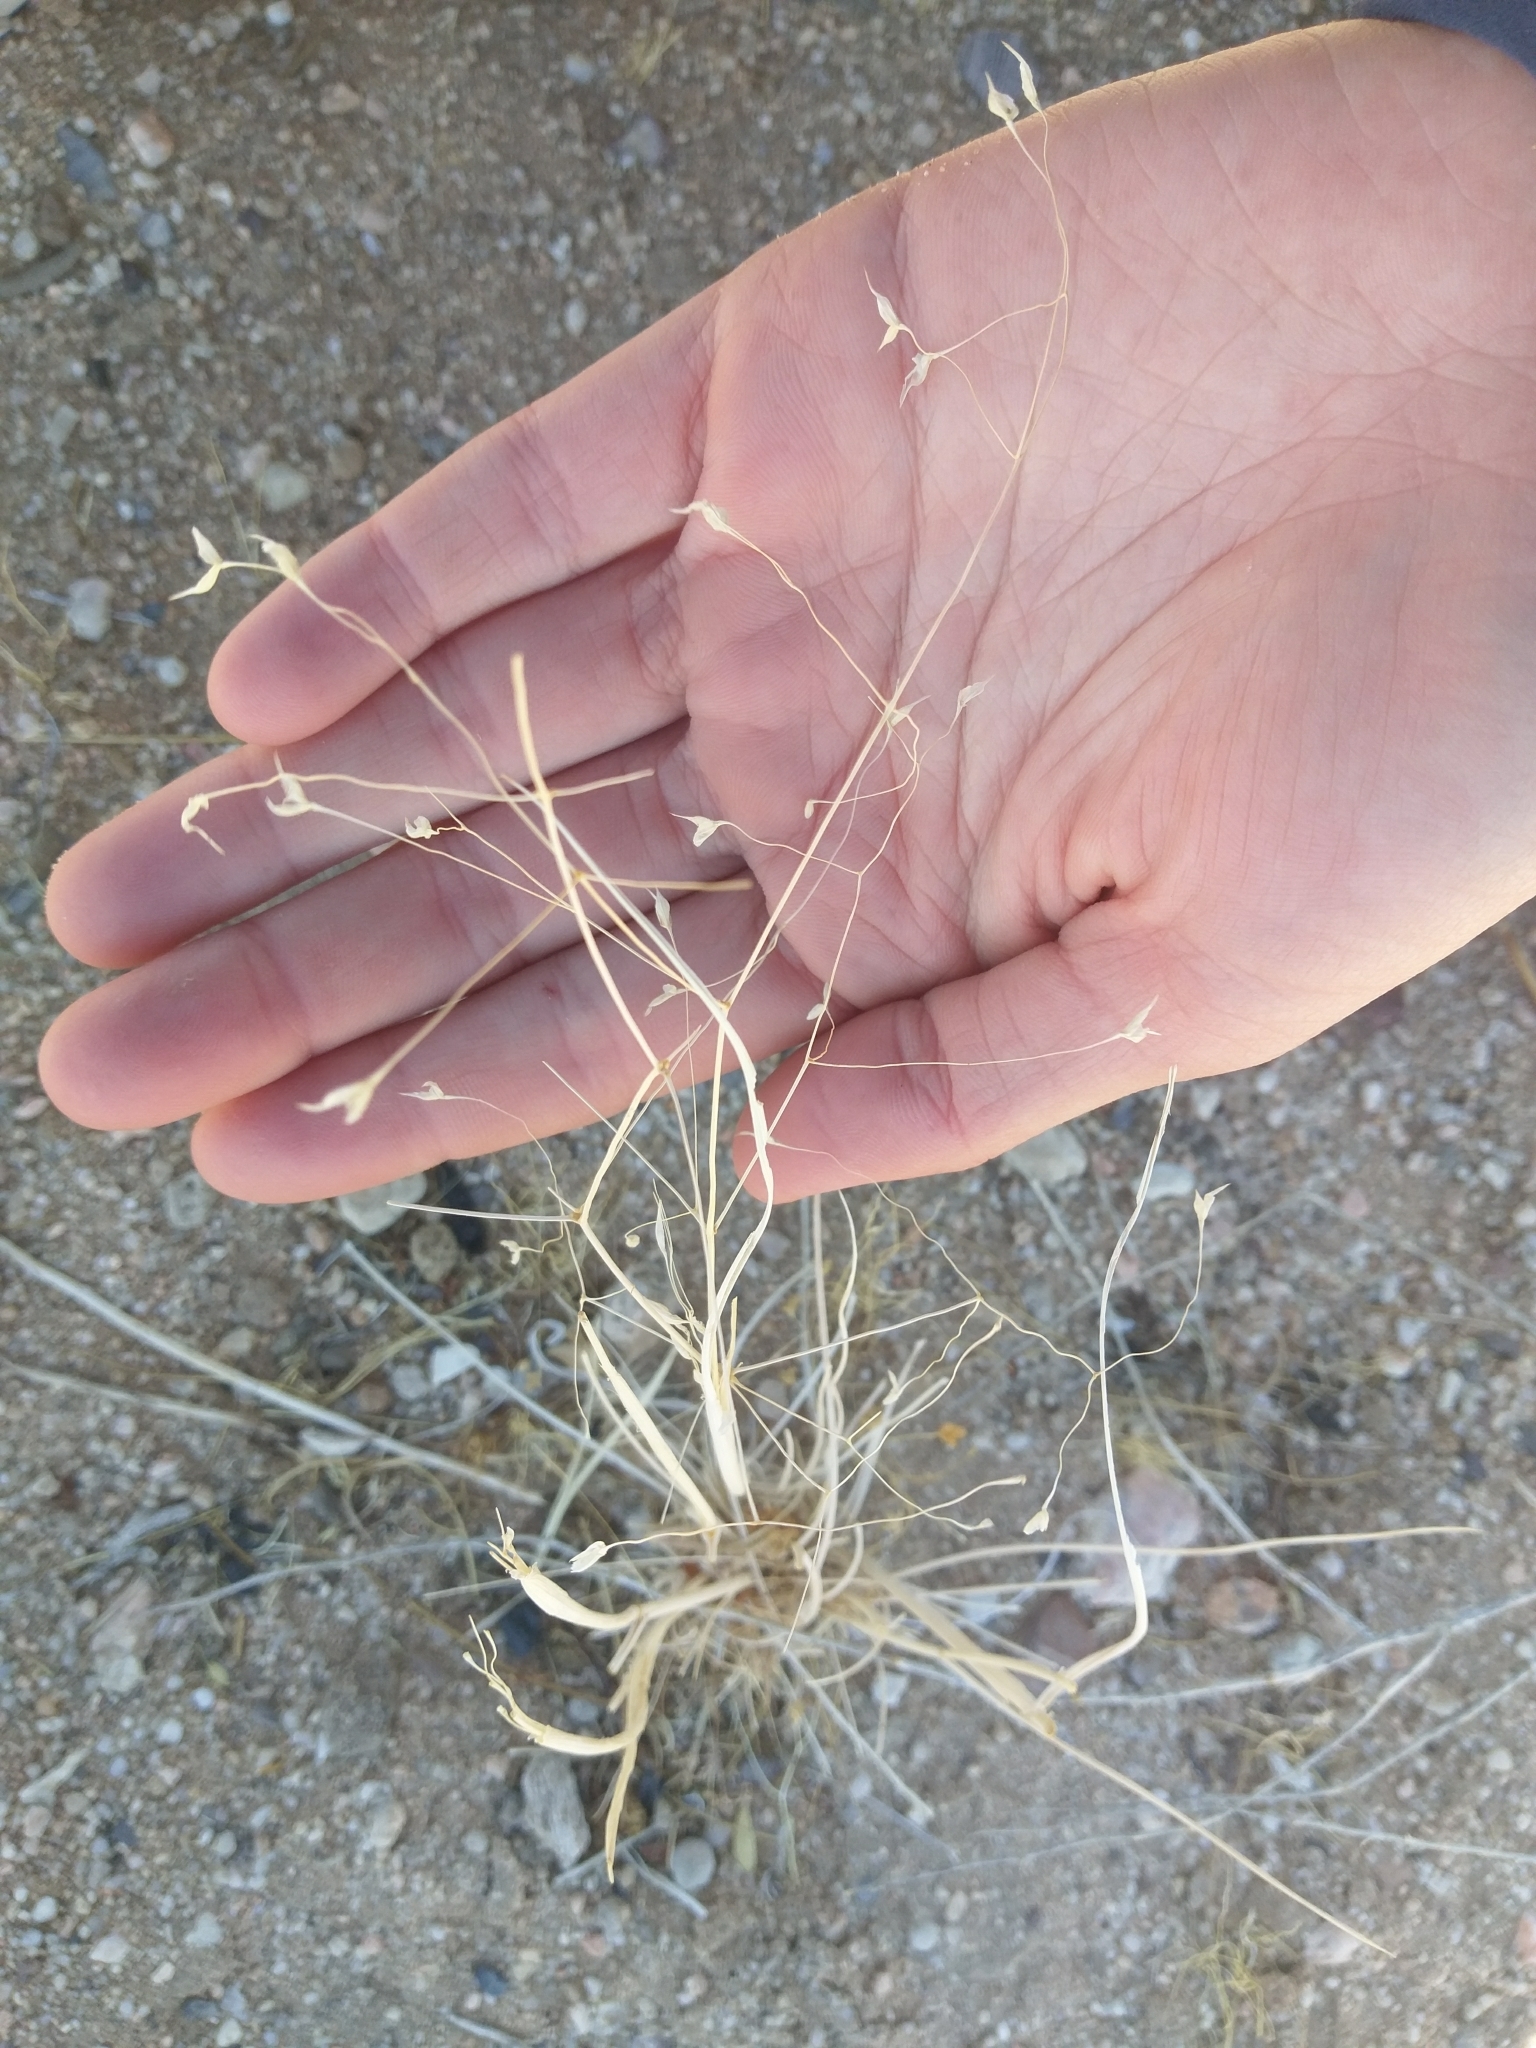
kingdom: Plantae
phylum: Tracheophyta
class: Liliopsida
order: Poales
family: Poaceae
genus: Eriocoma
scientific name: Eriocoma hymenoides
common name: Indian mountain ricegrass
